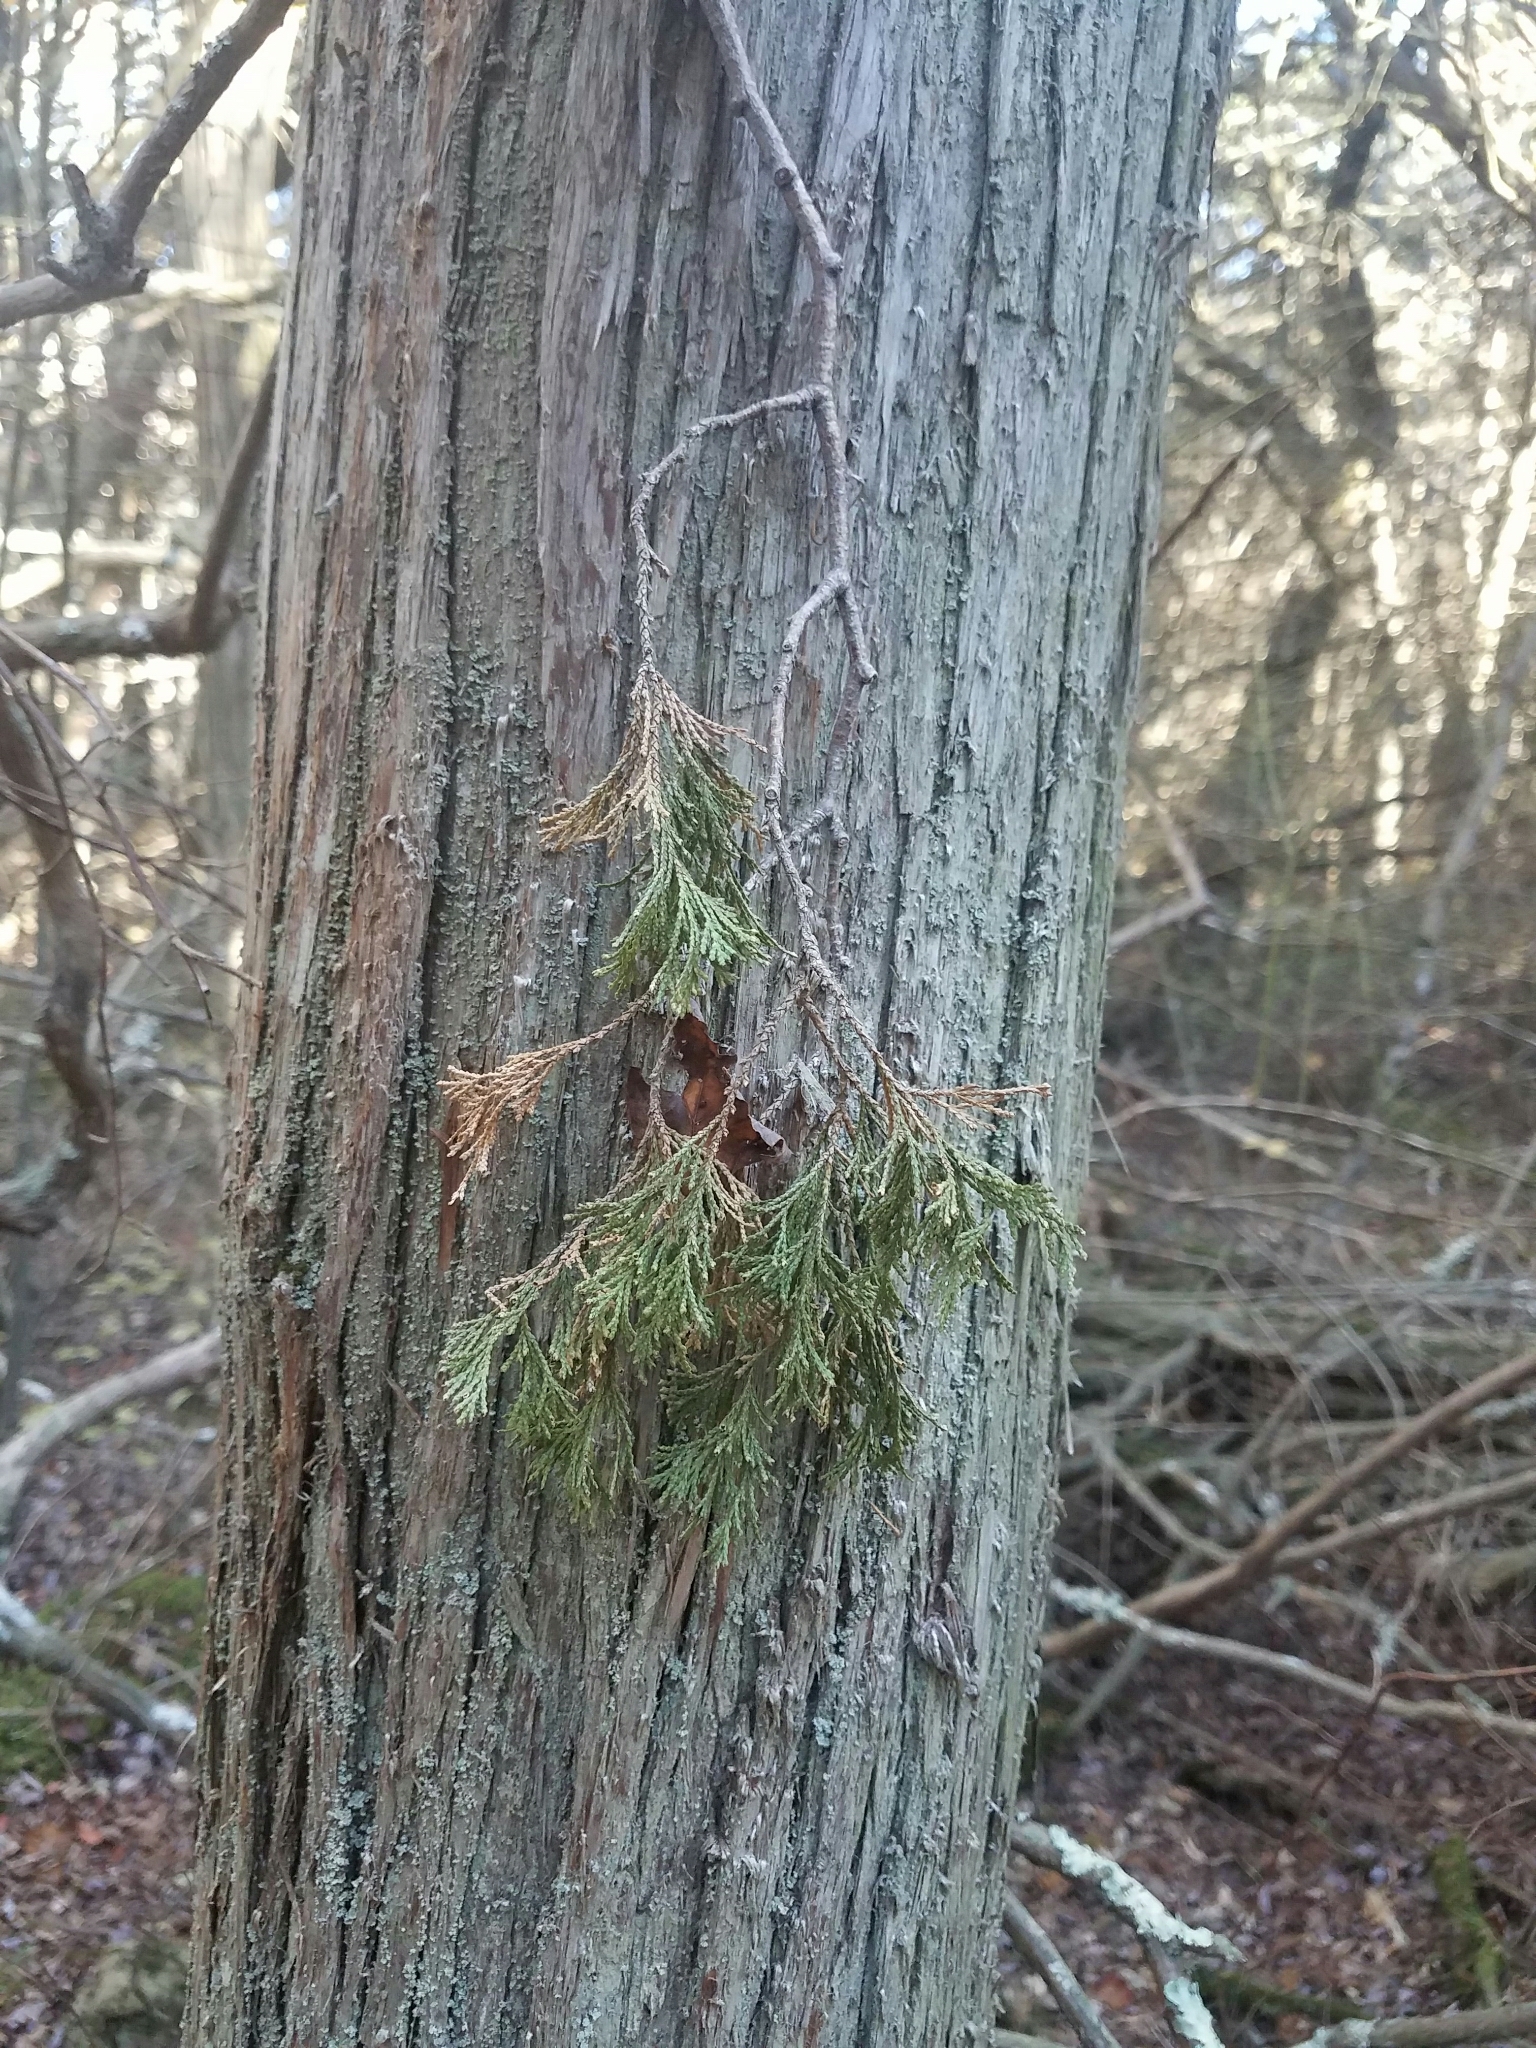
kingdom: Plantae
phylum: Tracheophyta
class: Pinopsida
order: Pinales
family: Cupressaceae
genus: Chamaecyparis
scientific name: Chamaecyparis thyoides
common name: Atlantic white cedar
